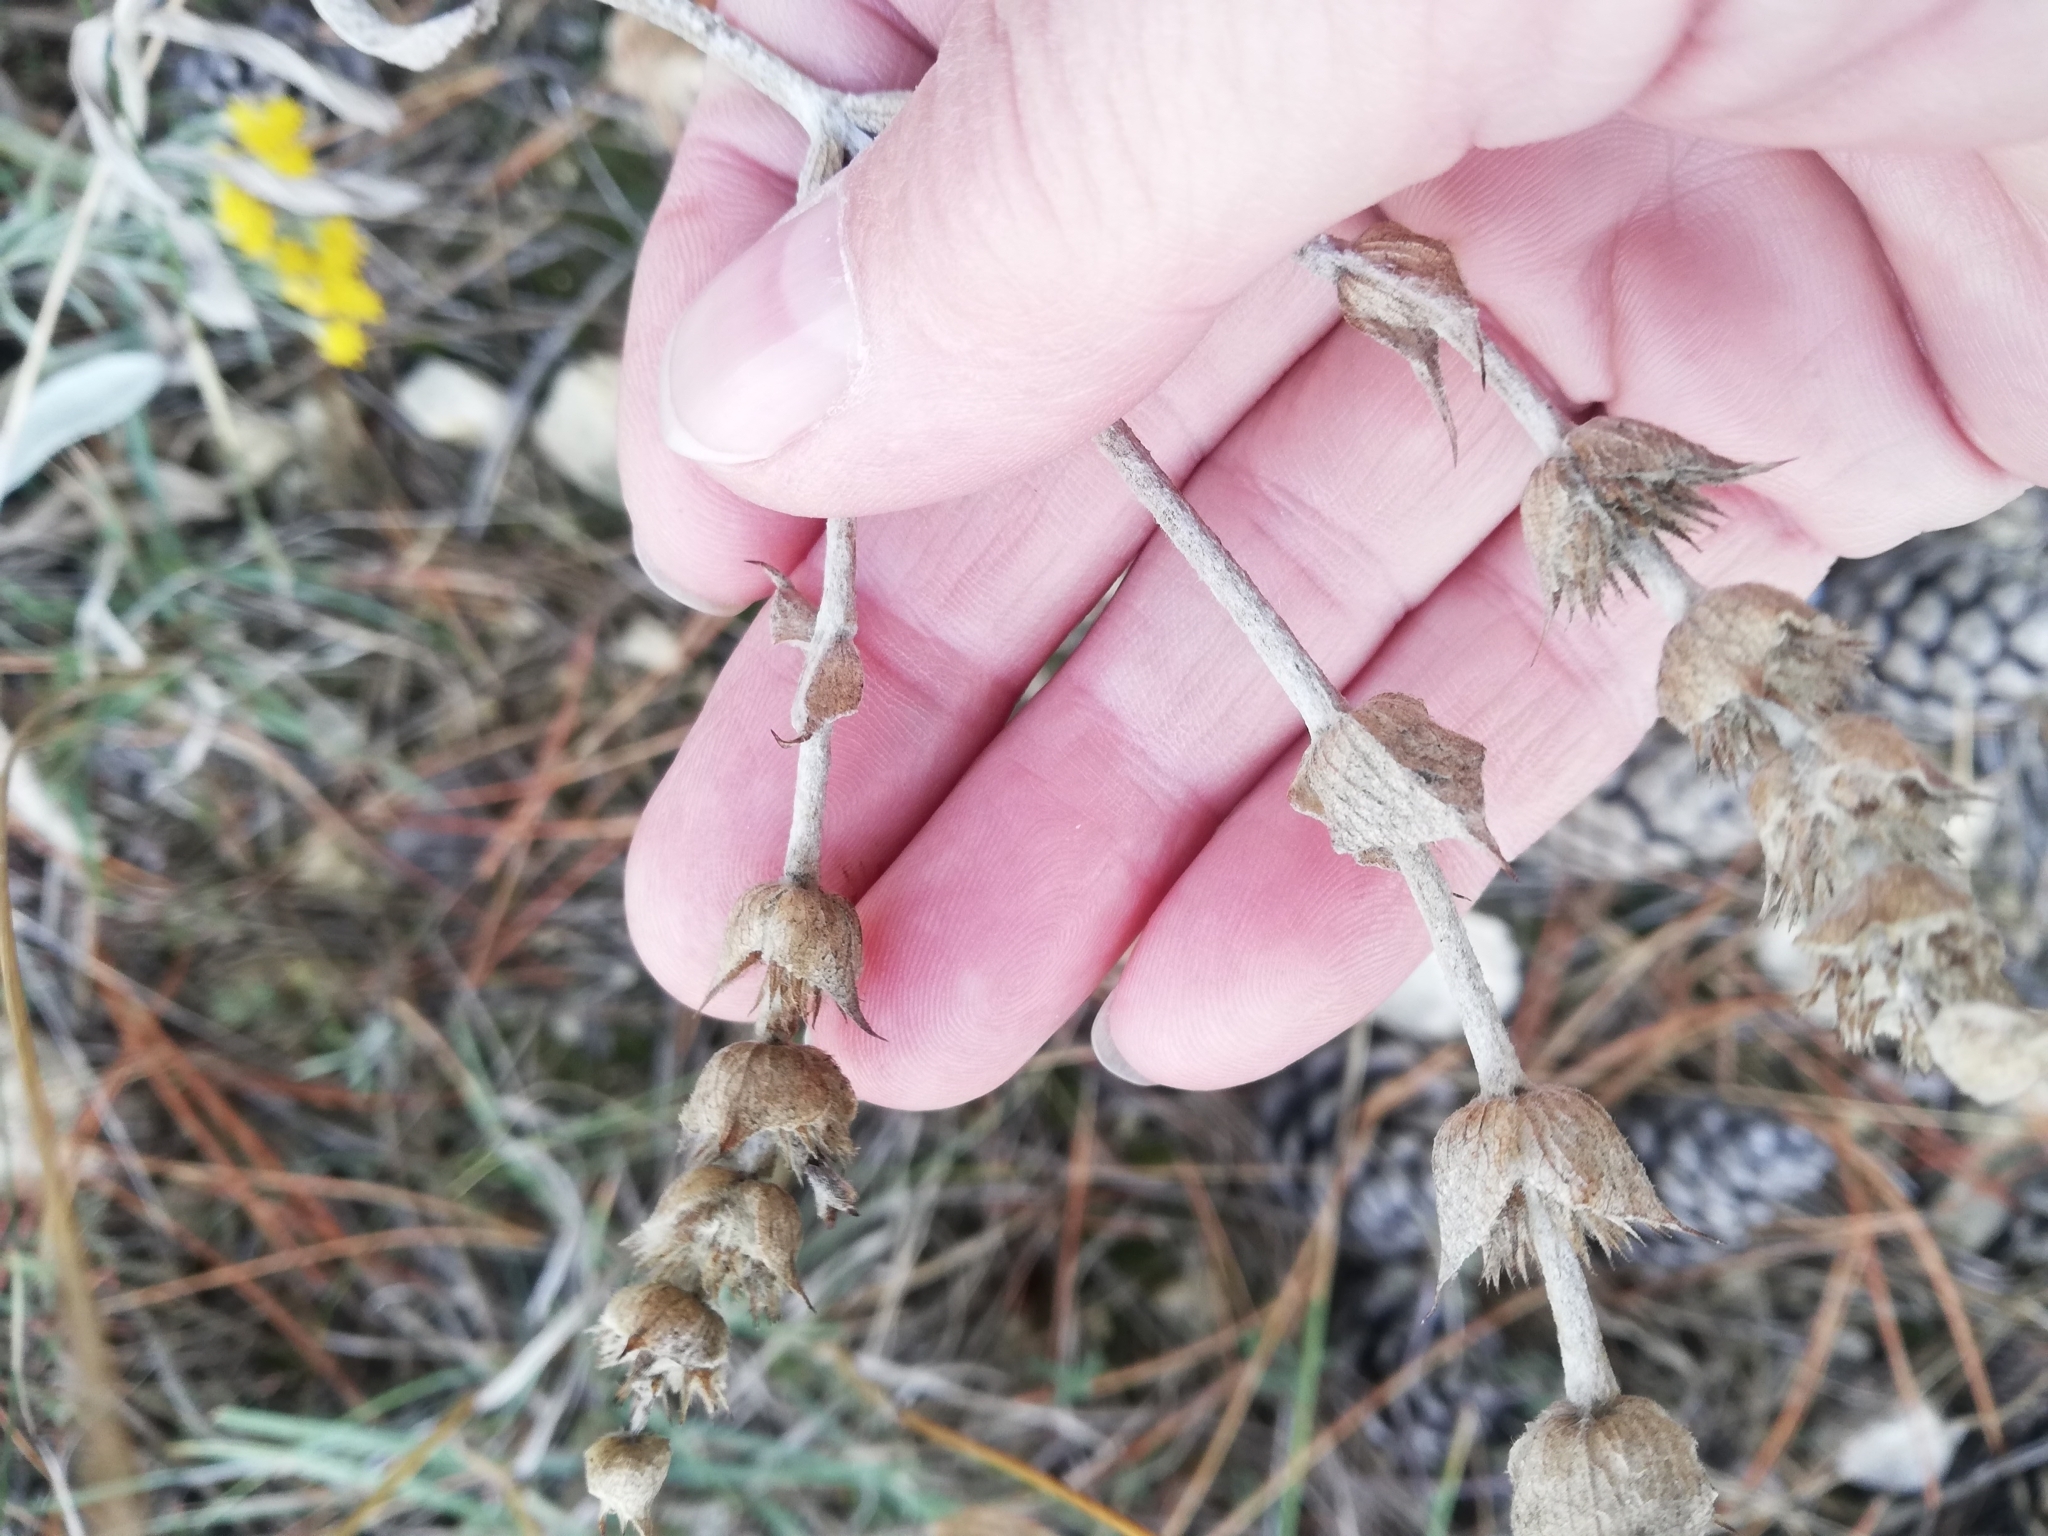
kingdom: Plantae
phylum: Tracheophyta
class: Magnoliopsida
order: Lamiales
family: Lamiaceae
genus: Sideritis
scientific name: Sideritis taurica
